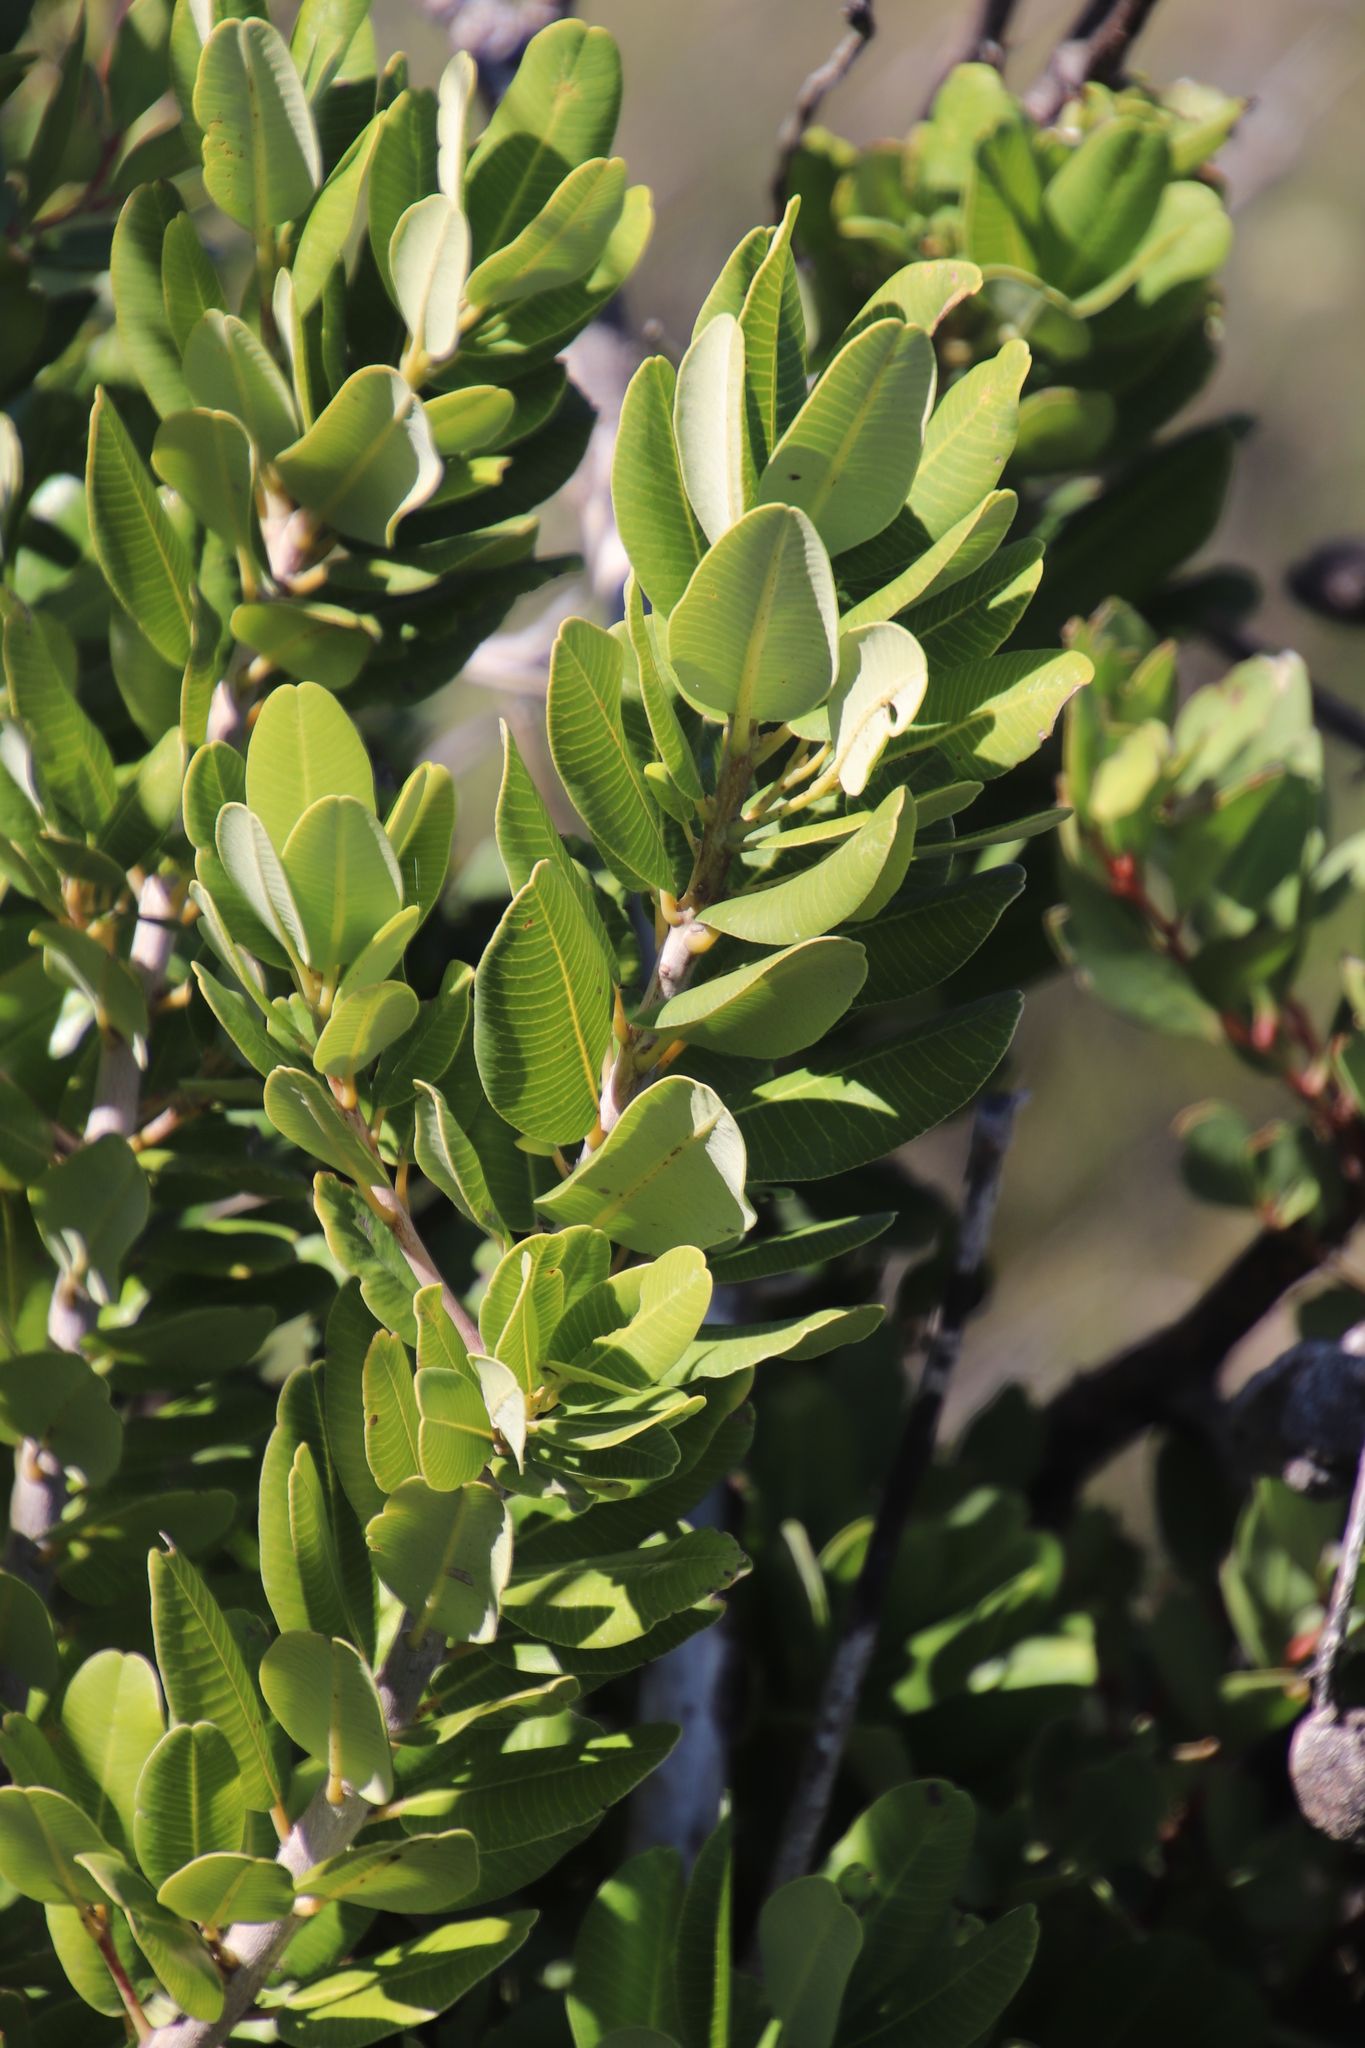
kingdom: Plantae
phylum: Tracheophyta
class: Magnoliopsida
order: Sapindales
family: Anacardiaceae
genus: Heeria
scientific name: Heeria argentea
